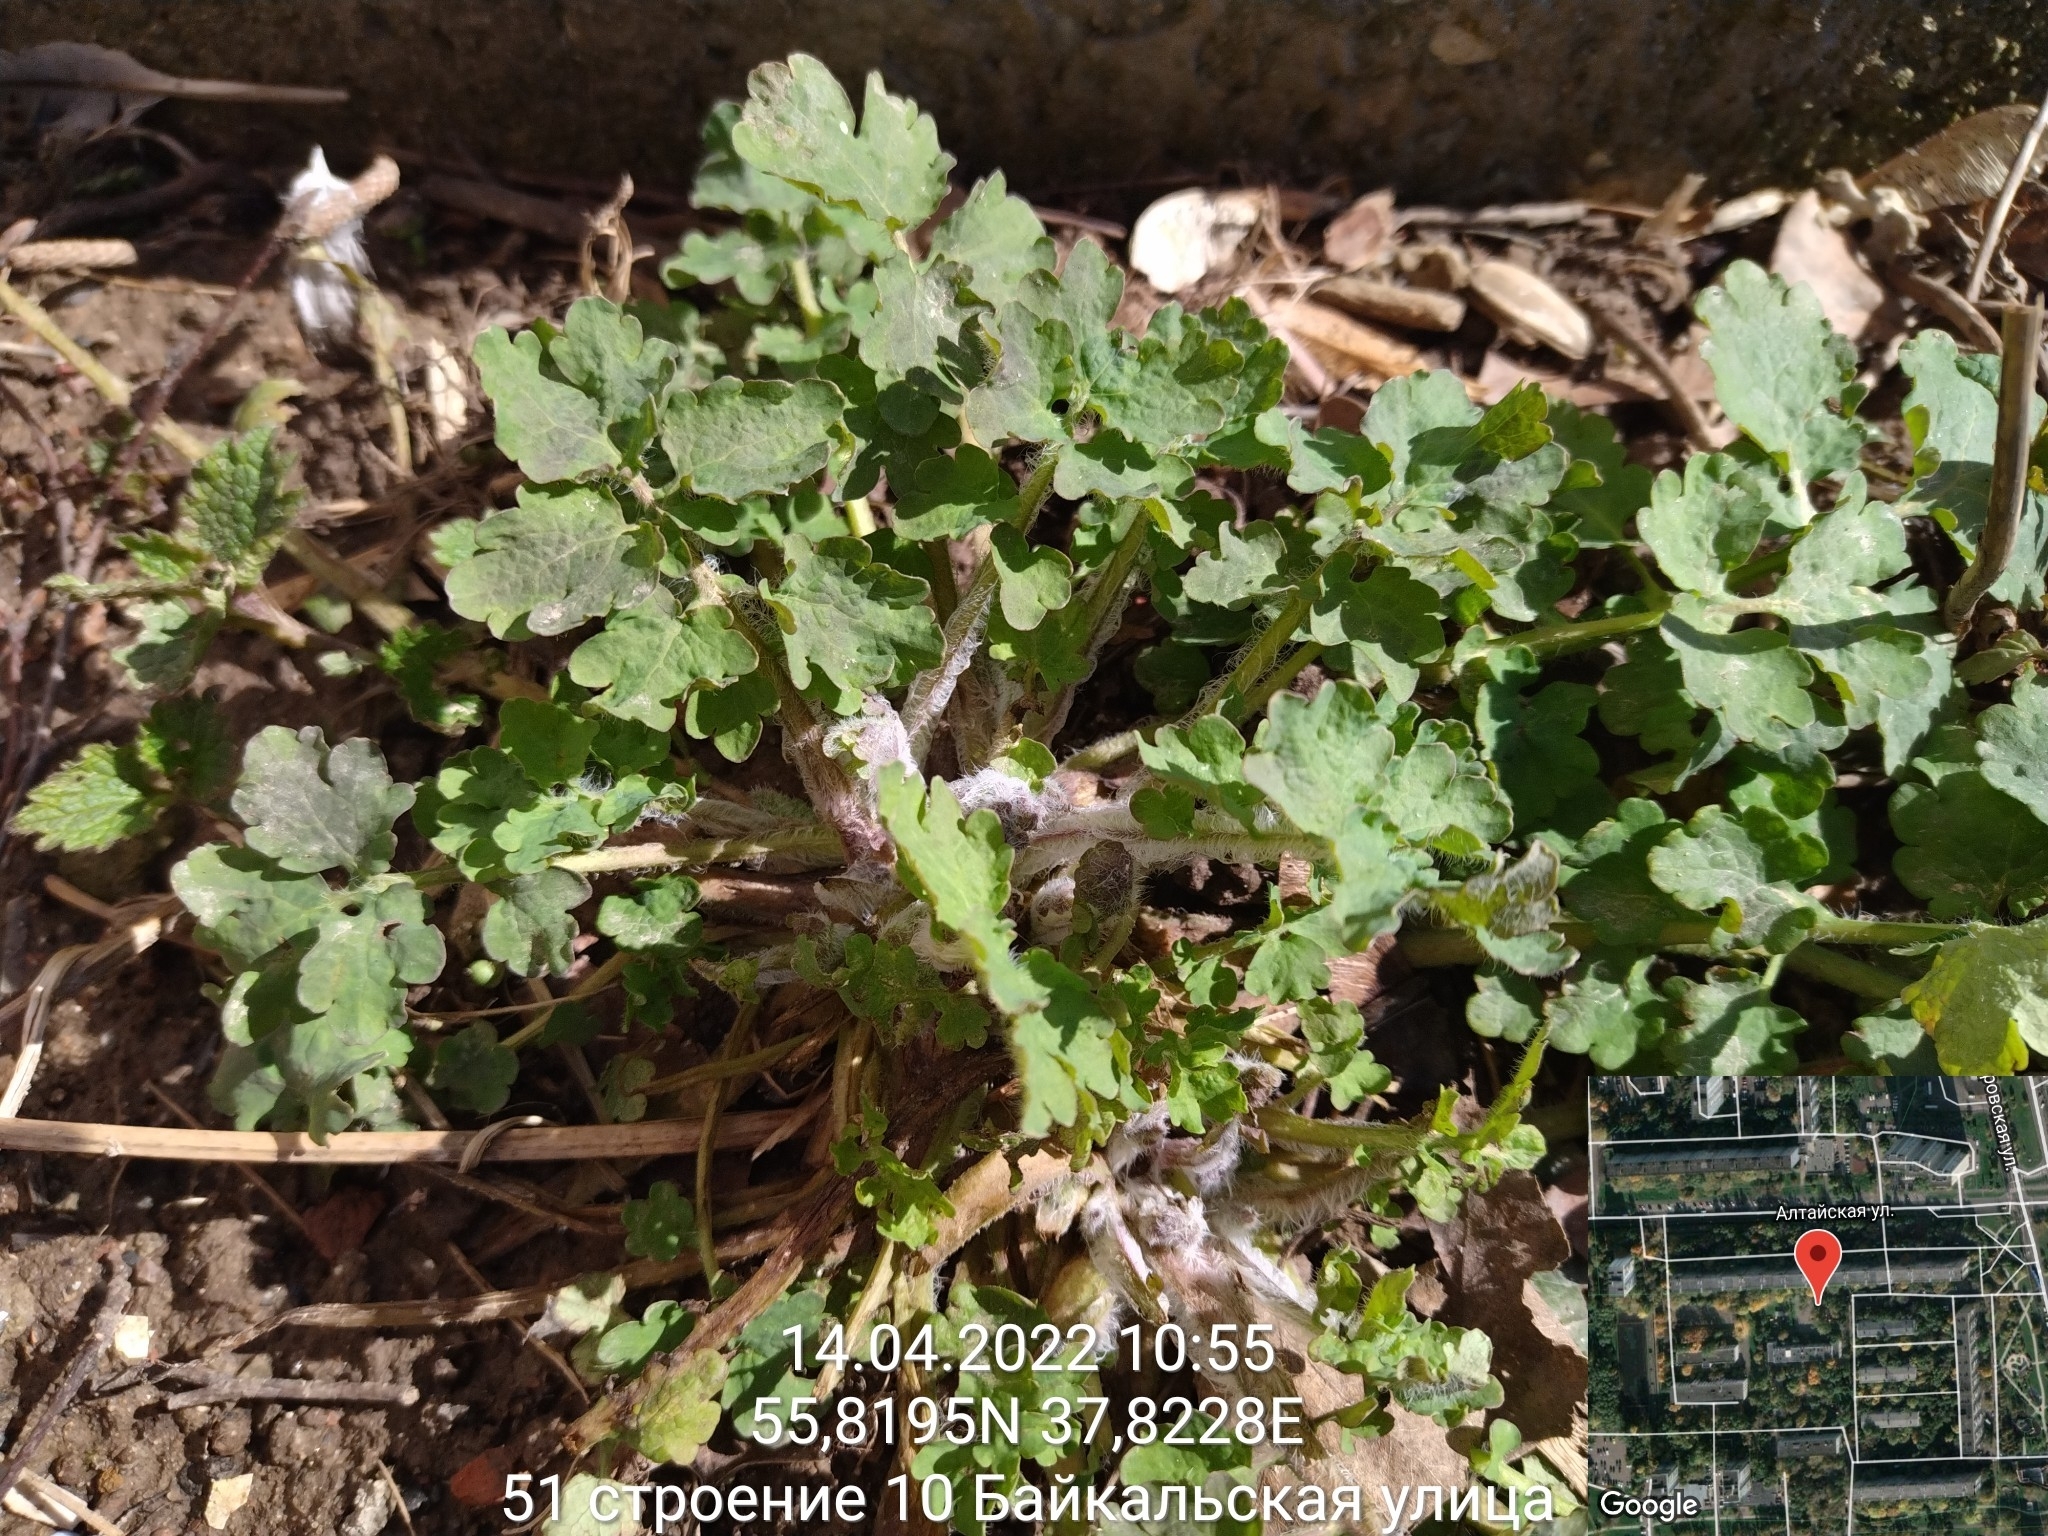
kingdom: Plantae
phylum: Tracheophyta
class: Magnoliopsida
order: Ranunculales
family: Papaveraceae
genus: Chelidonium
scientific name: Chelidonium majus
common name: Greater celandine
